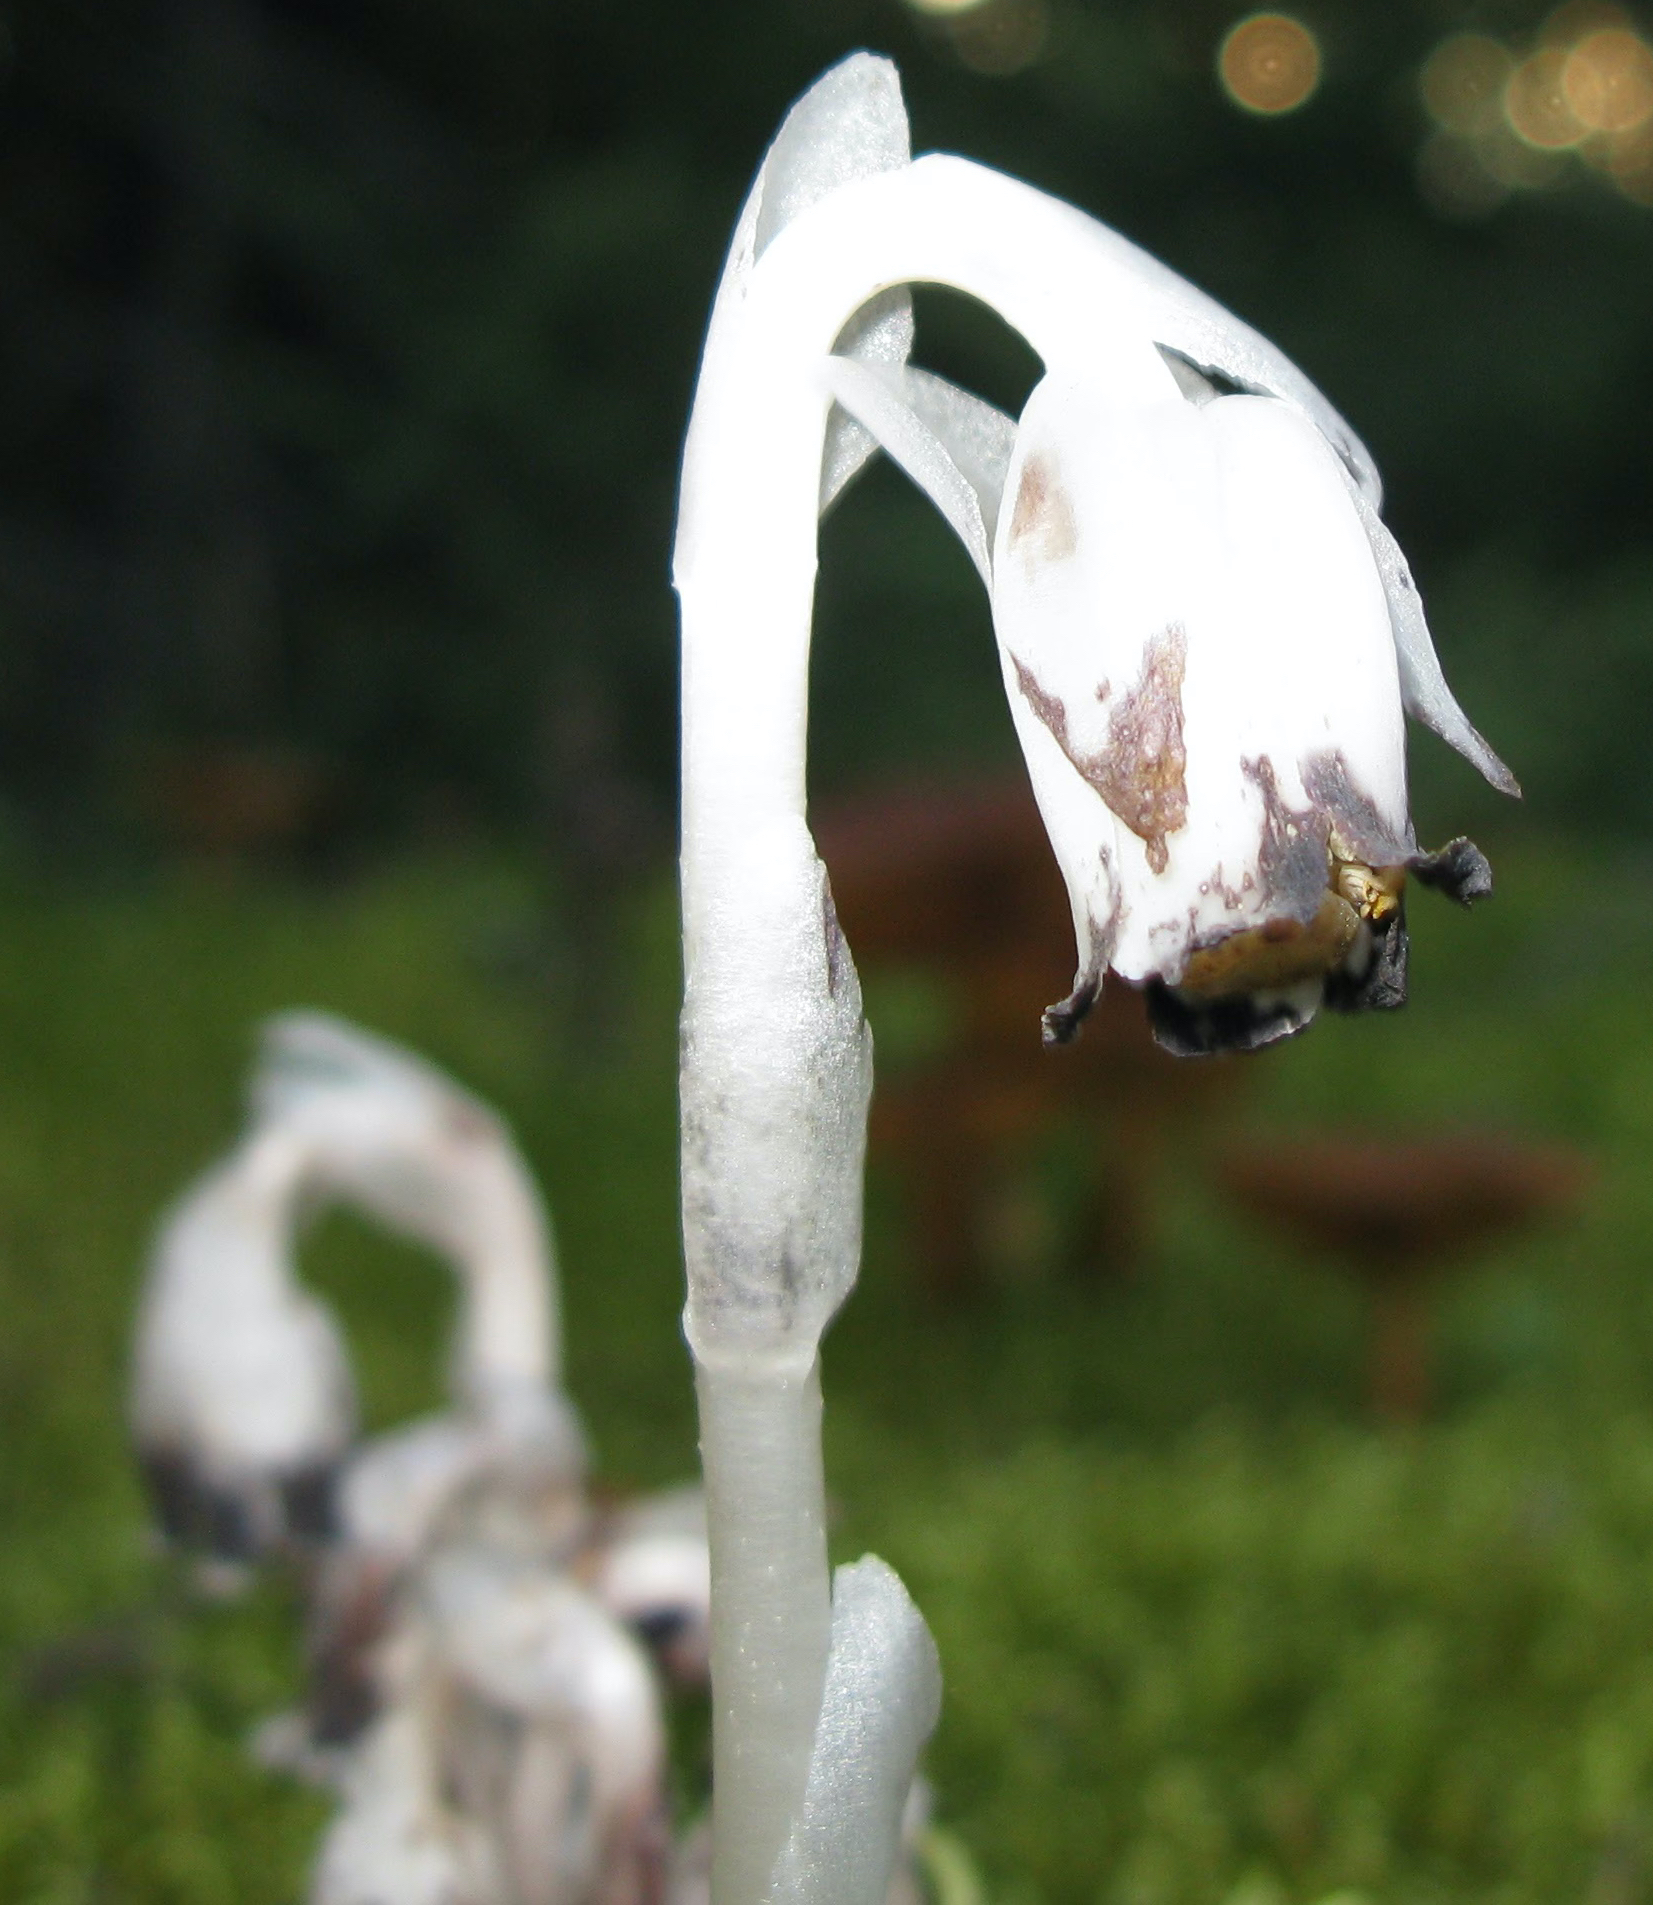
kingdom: Plantae
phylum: Tracheophyta
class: Magnoliopsida
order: Ericales
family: Ericaceae
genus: Monotropa
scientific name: Monotropa uniflora
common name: Convulsion root
